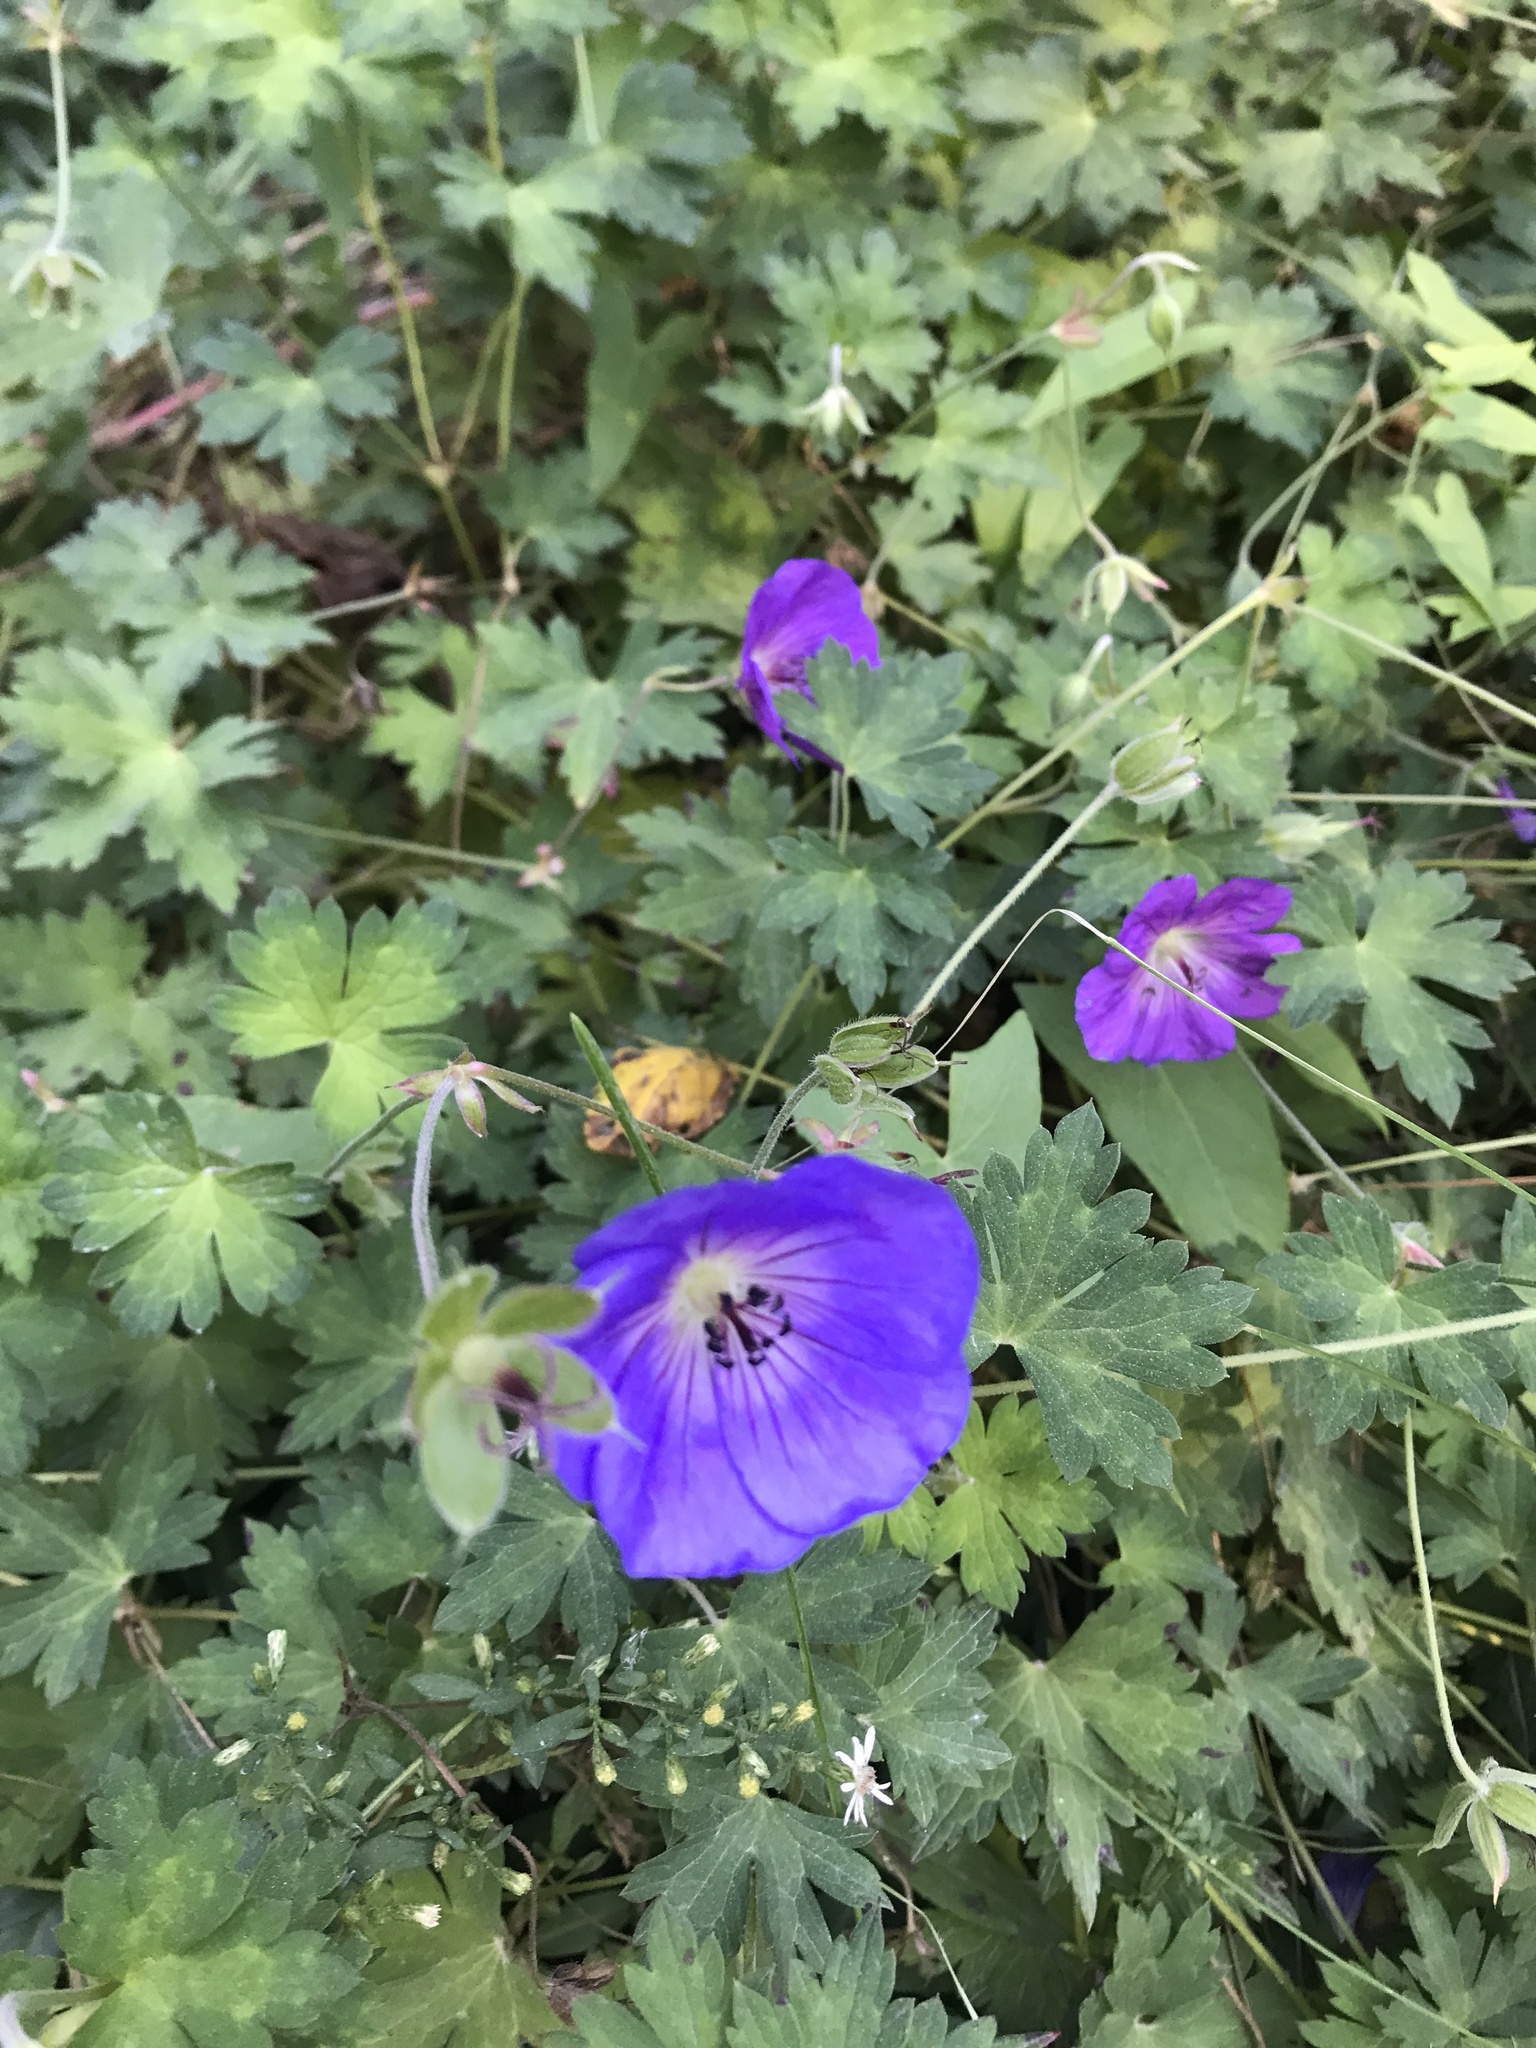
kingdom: Plantae
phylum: Tracheophyta
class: Magnoliopsida
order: Geraniales
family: Geraniaceae
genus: Geranium
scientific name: Geranium maculatum
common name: Spotted geranium
